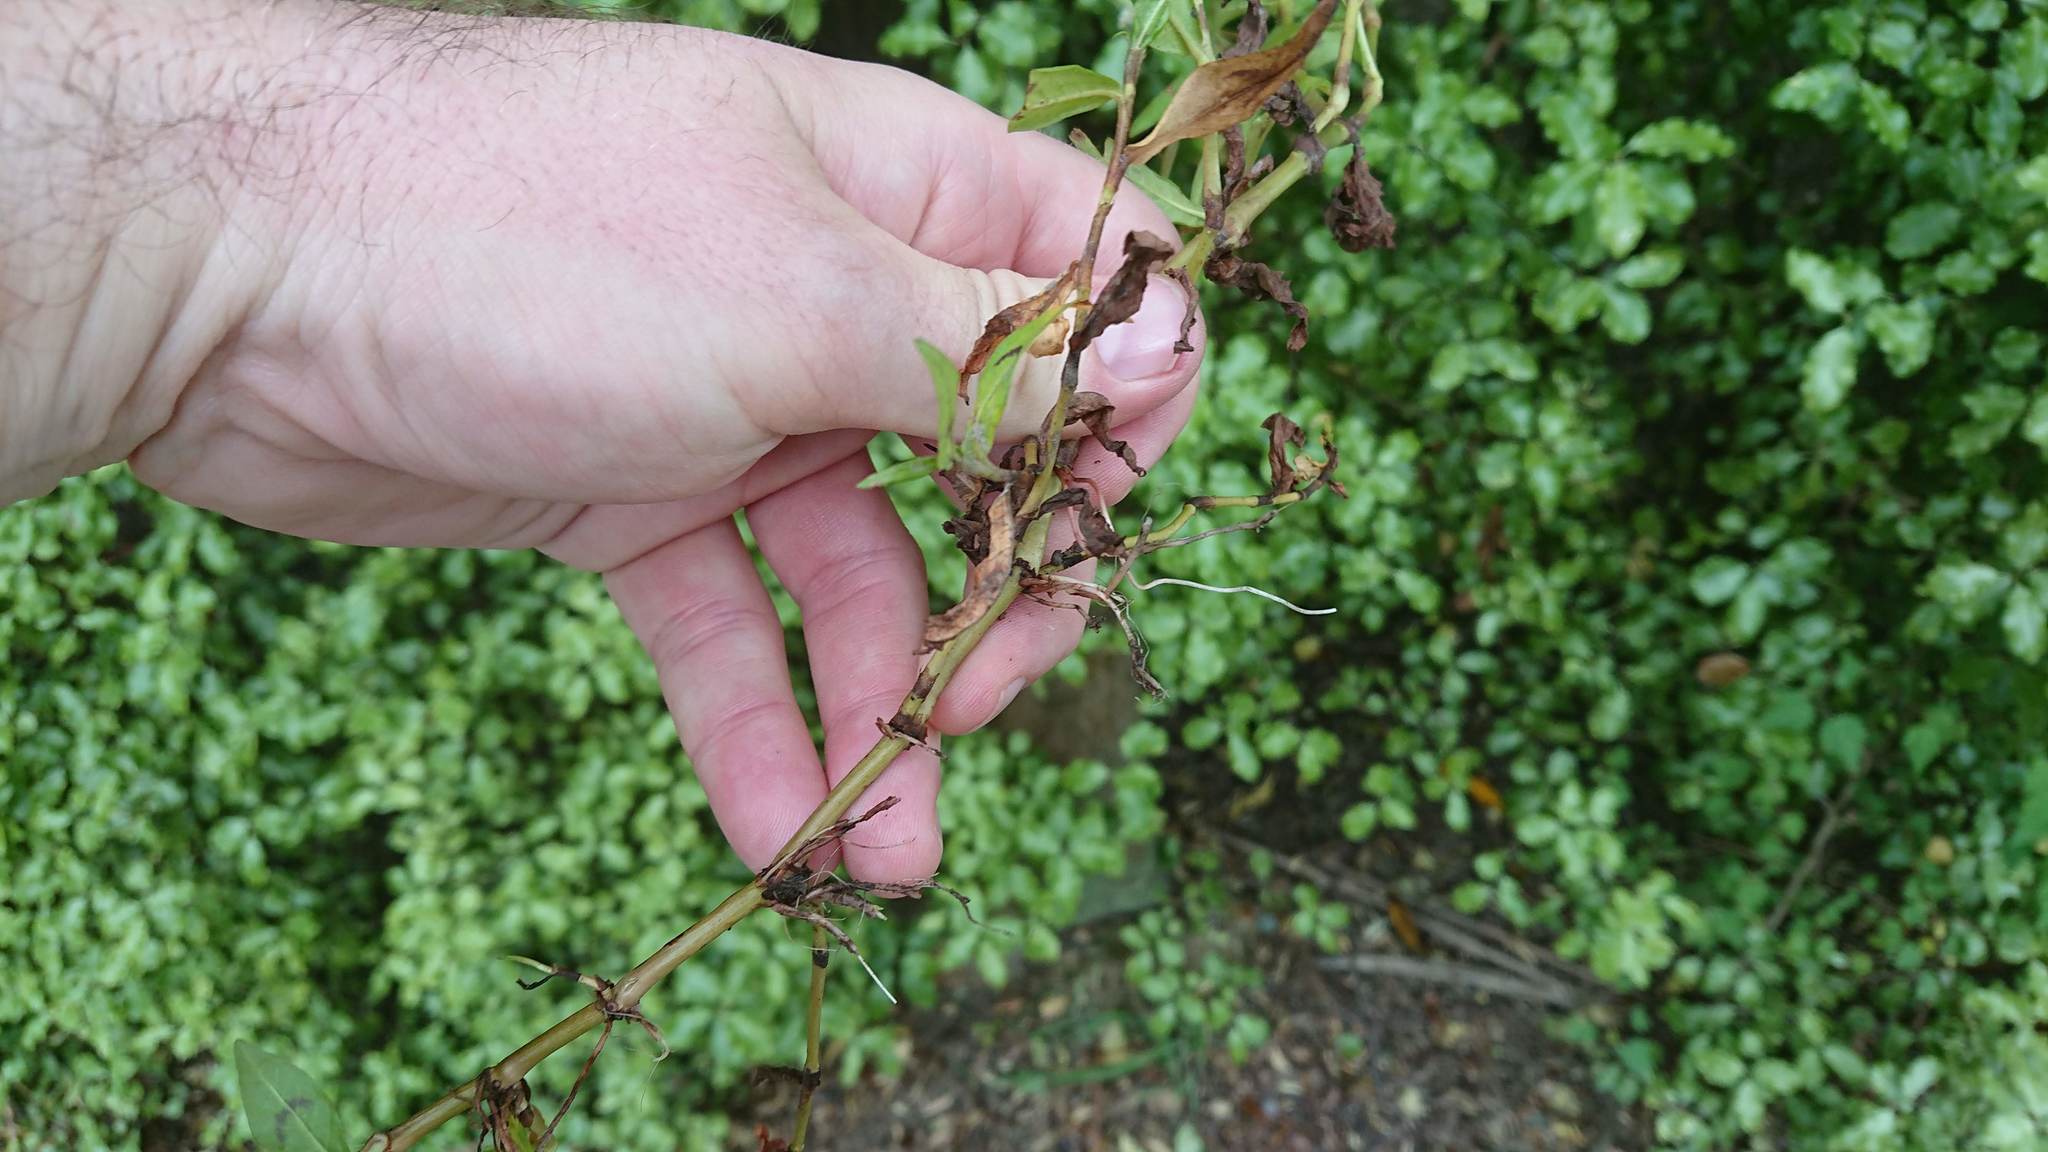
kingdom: Plantae
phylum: Tracheophyta
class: Magnoliopsida
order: Caryophyllales
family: Polygonaceae
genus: Persicaria
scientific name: Persicaria decipiens
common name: Willow-weed
